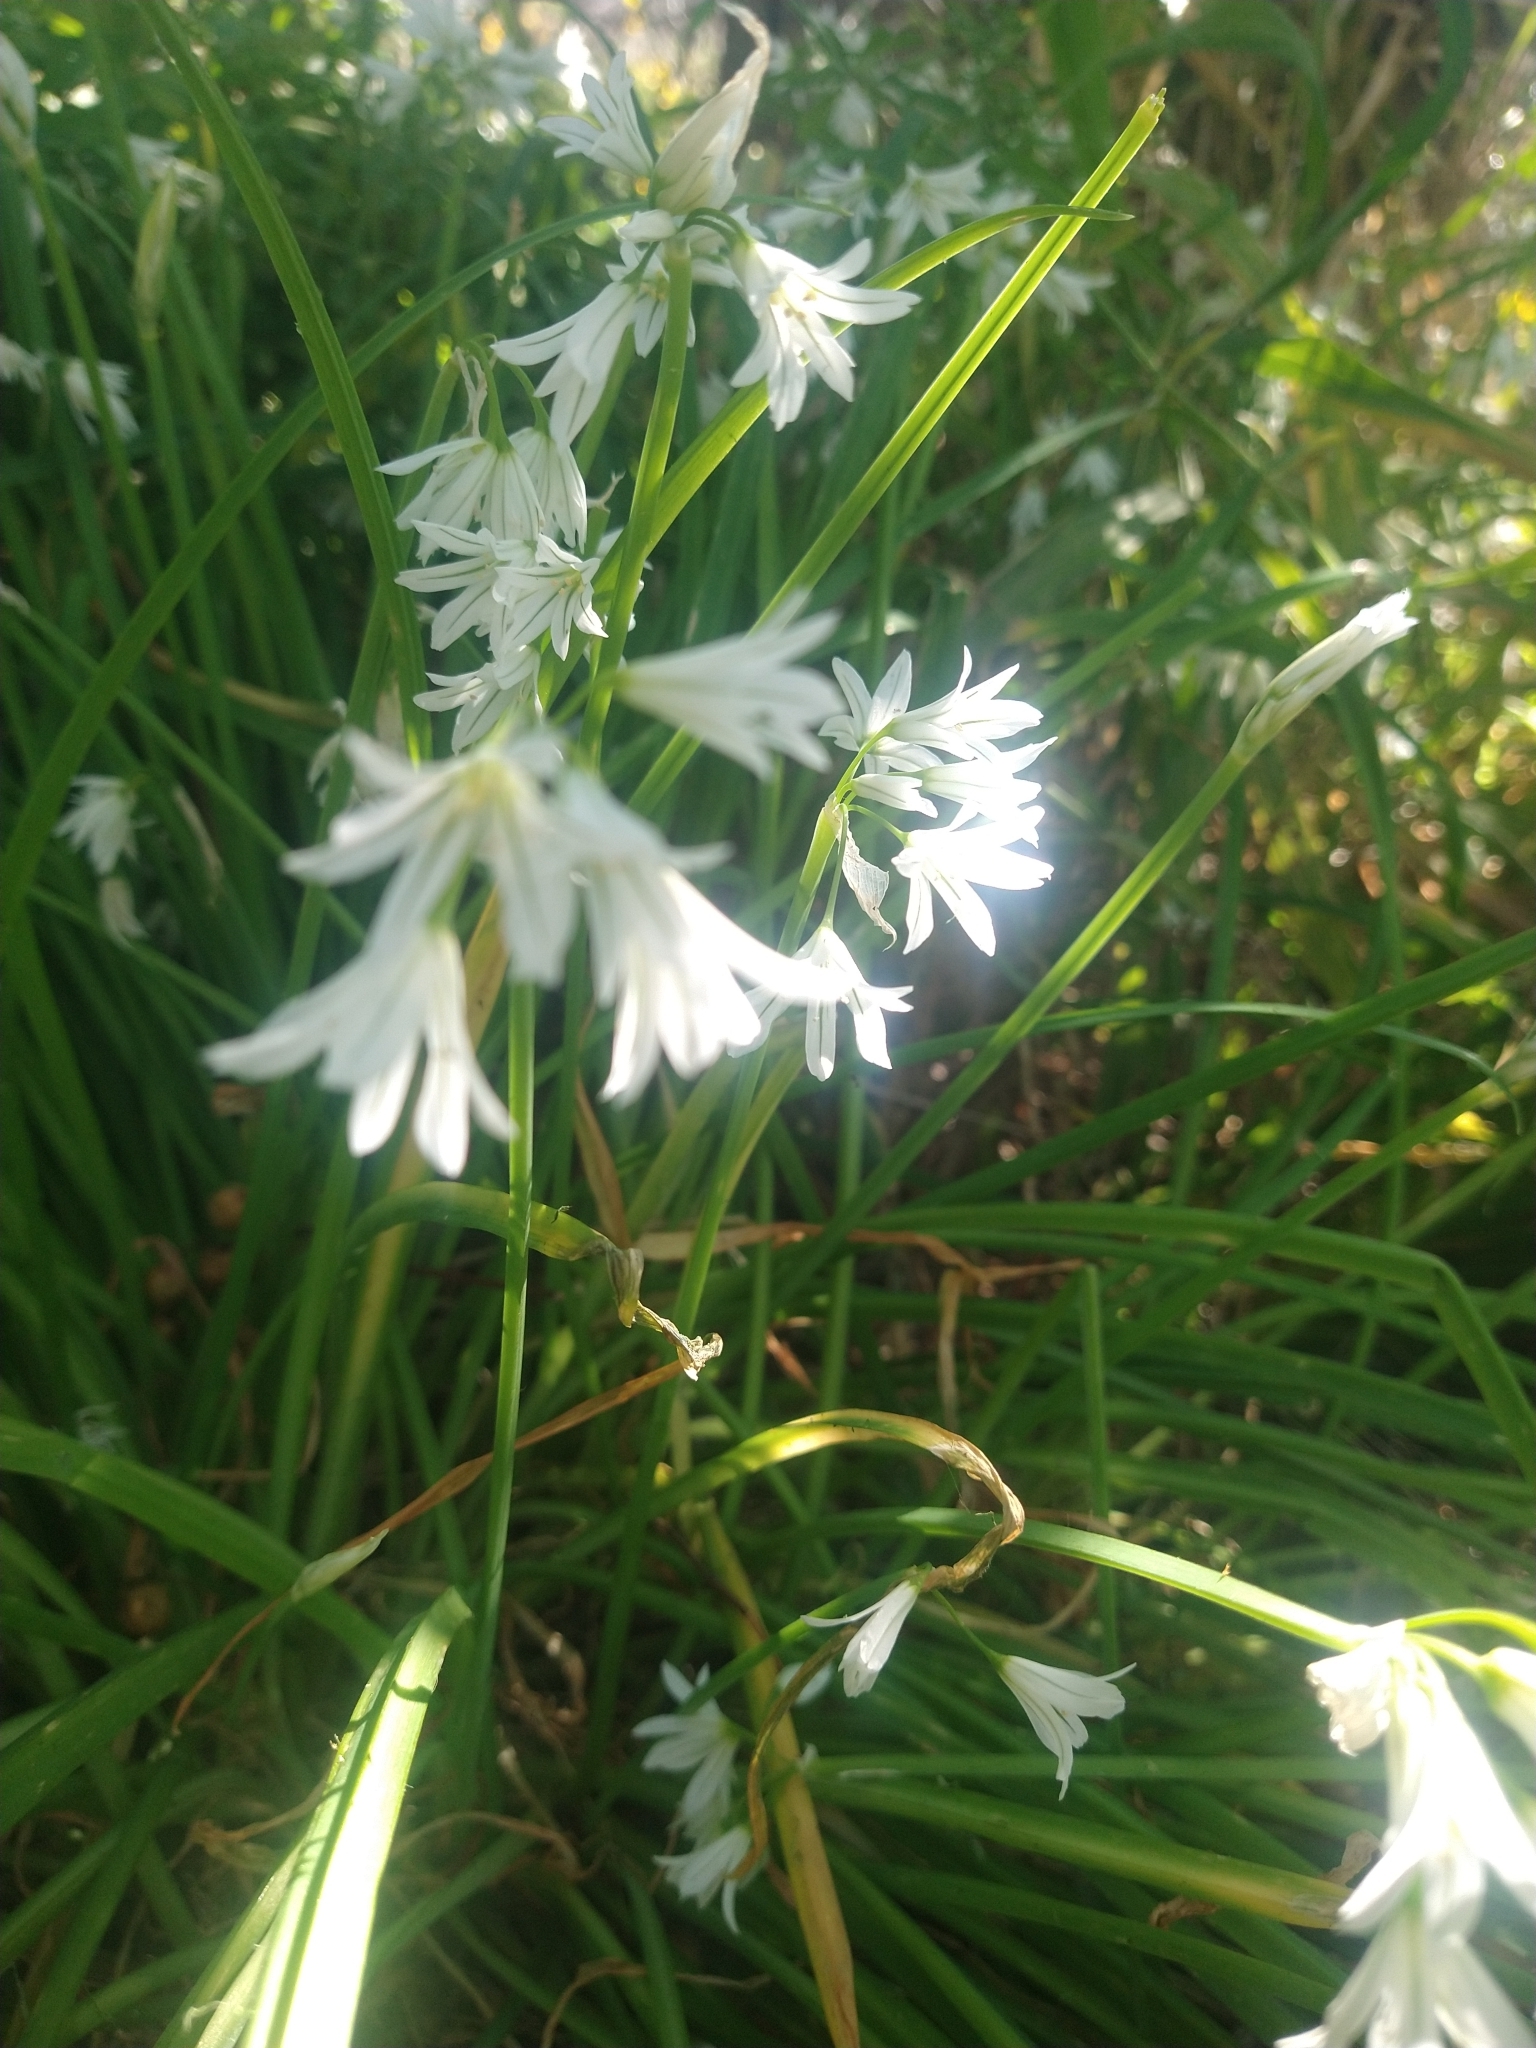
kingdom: Plantae
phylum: Tracheophyta
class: Liliopsida
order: Asparagales
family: Amaryllidaceae
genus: Allium
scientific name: Allium triquetrum
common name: Three-cornered garlic
